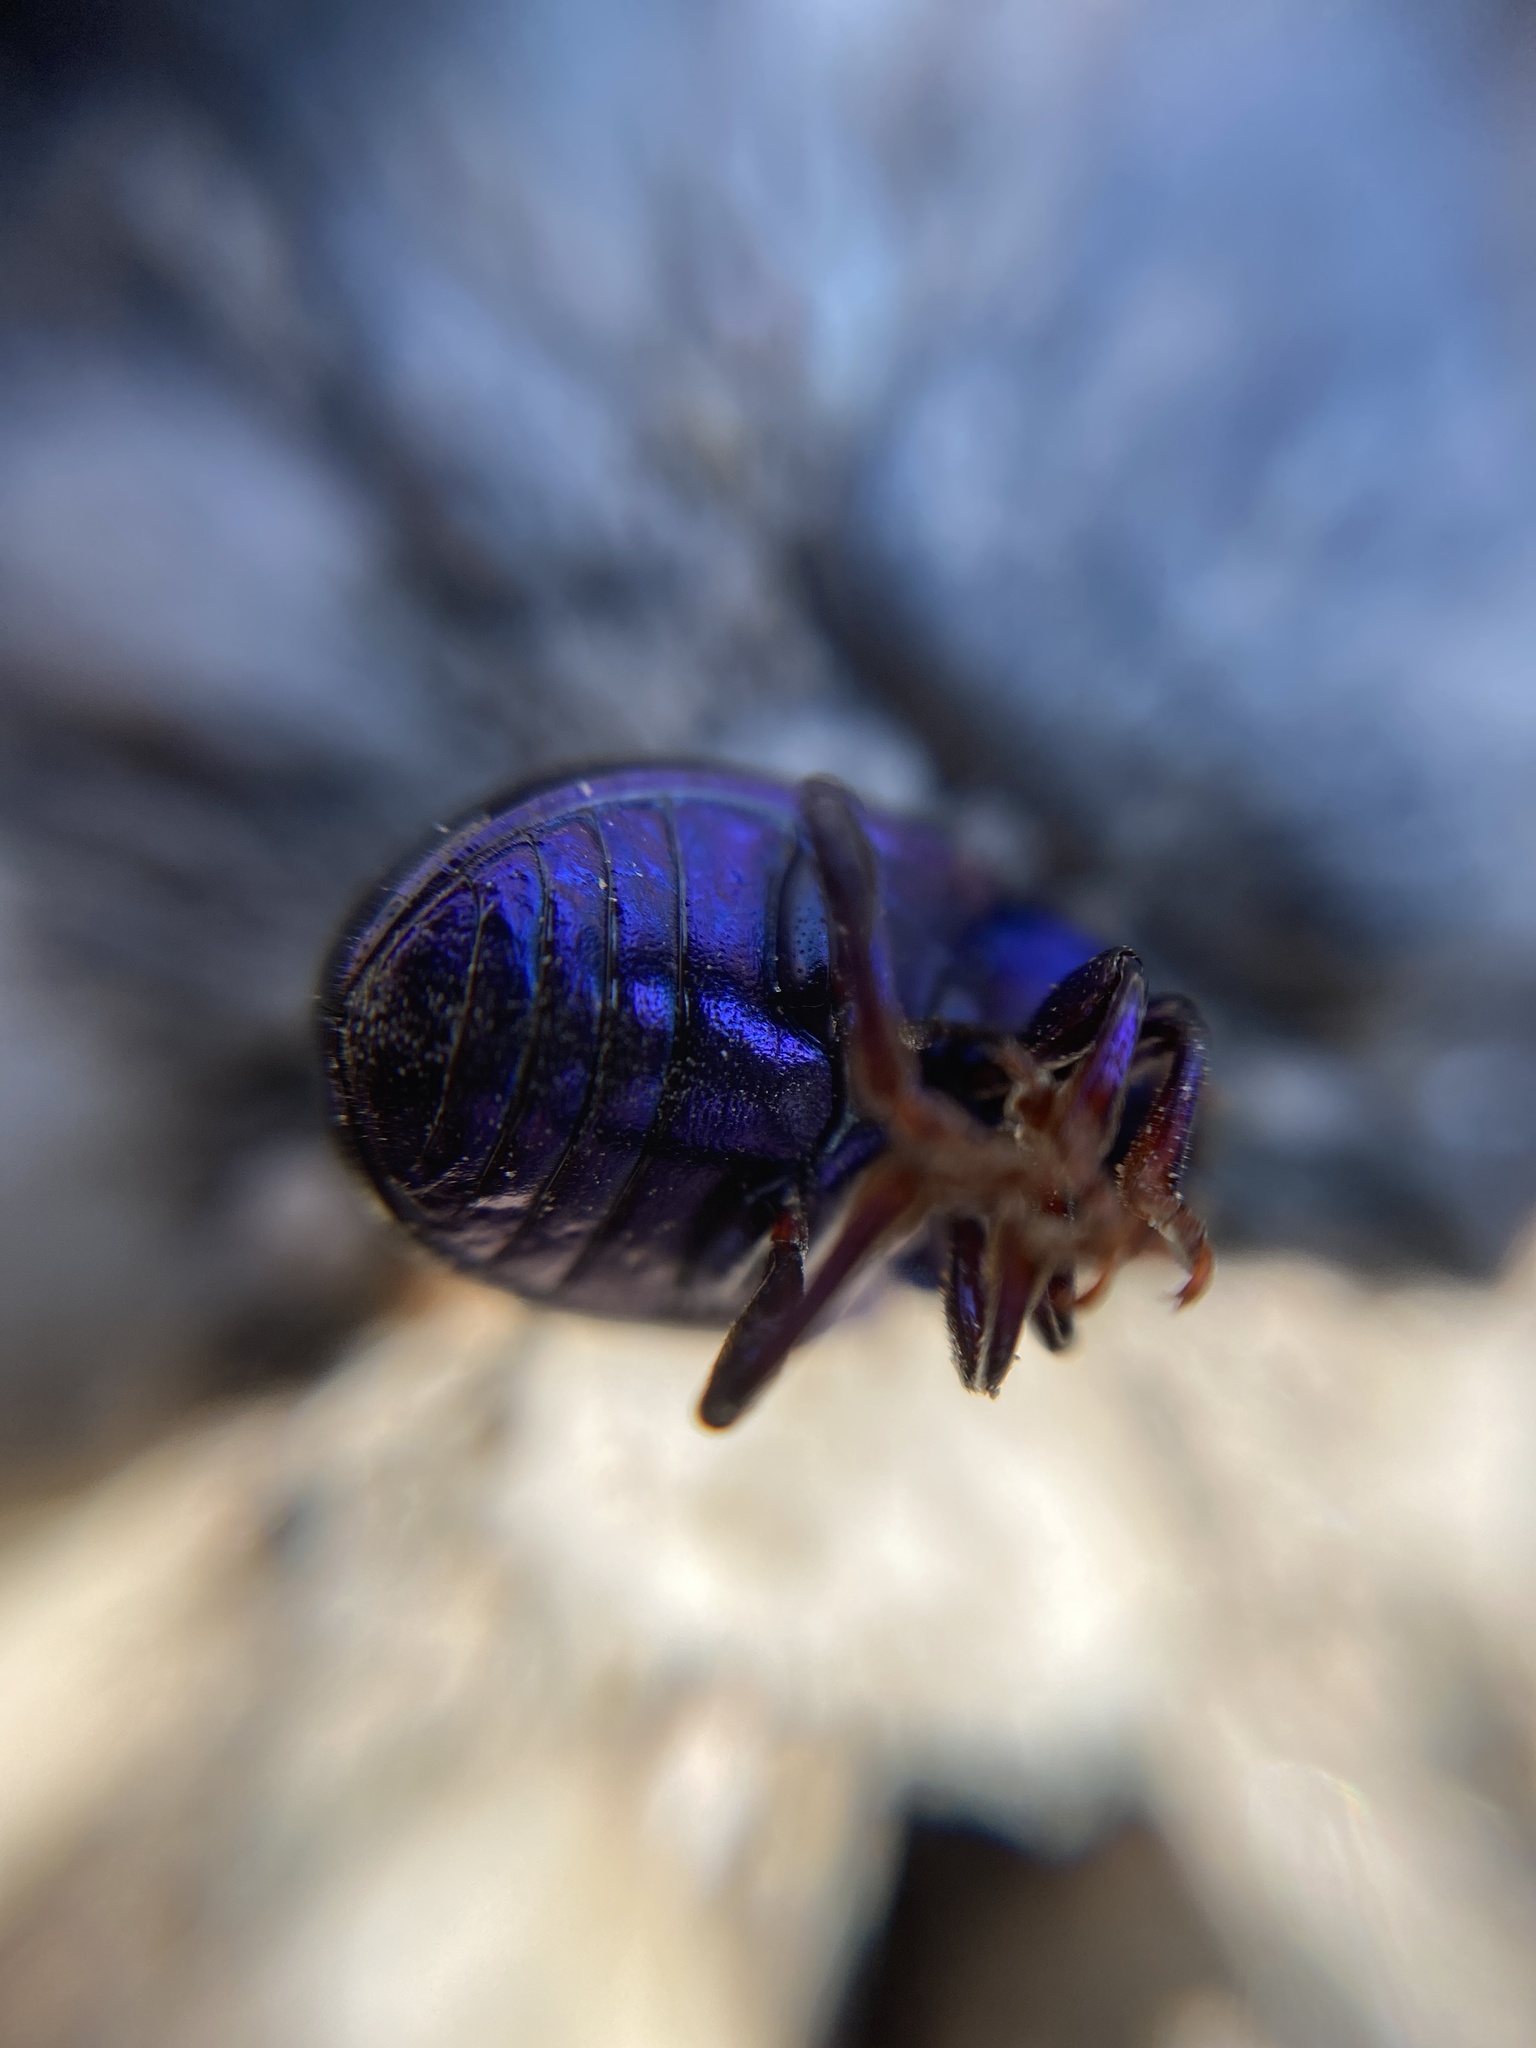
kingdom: Animalia
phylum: Arthropoda
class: Insecta
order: Coleoptera
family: Chrysomelidae
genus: Chrysolina
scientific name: Chrysolina sturmi
